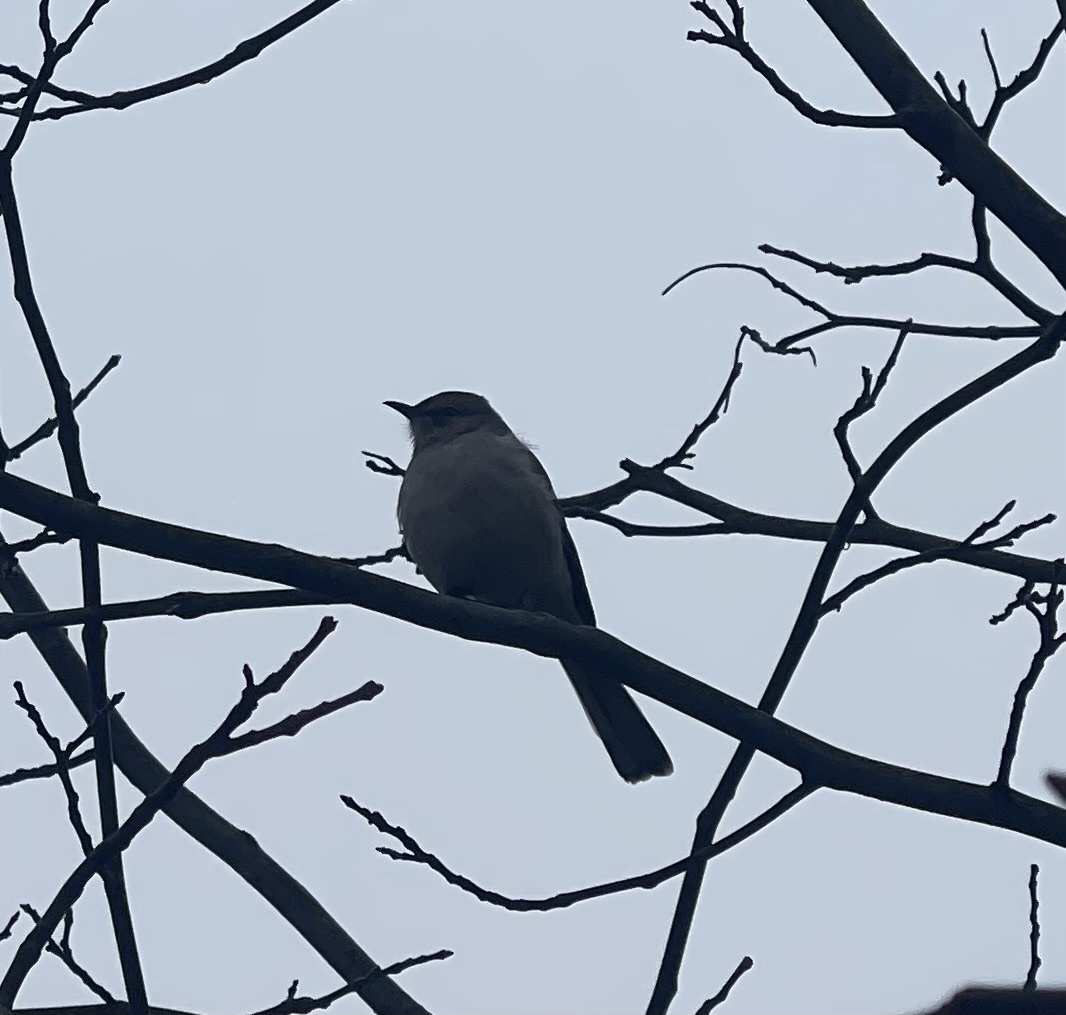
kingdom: Animalia
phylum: Chordata
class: Aves
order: Passeriformes
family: Mimidae
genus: Mimus
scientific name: Mimus polyglottos
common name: Northern mockingbird
